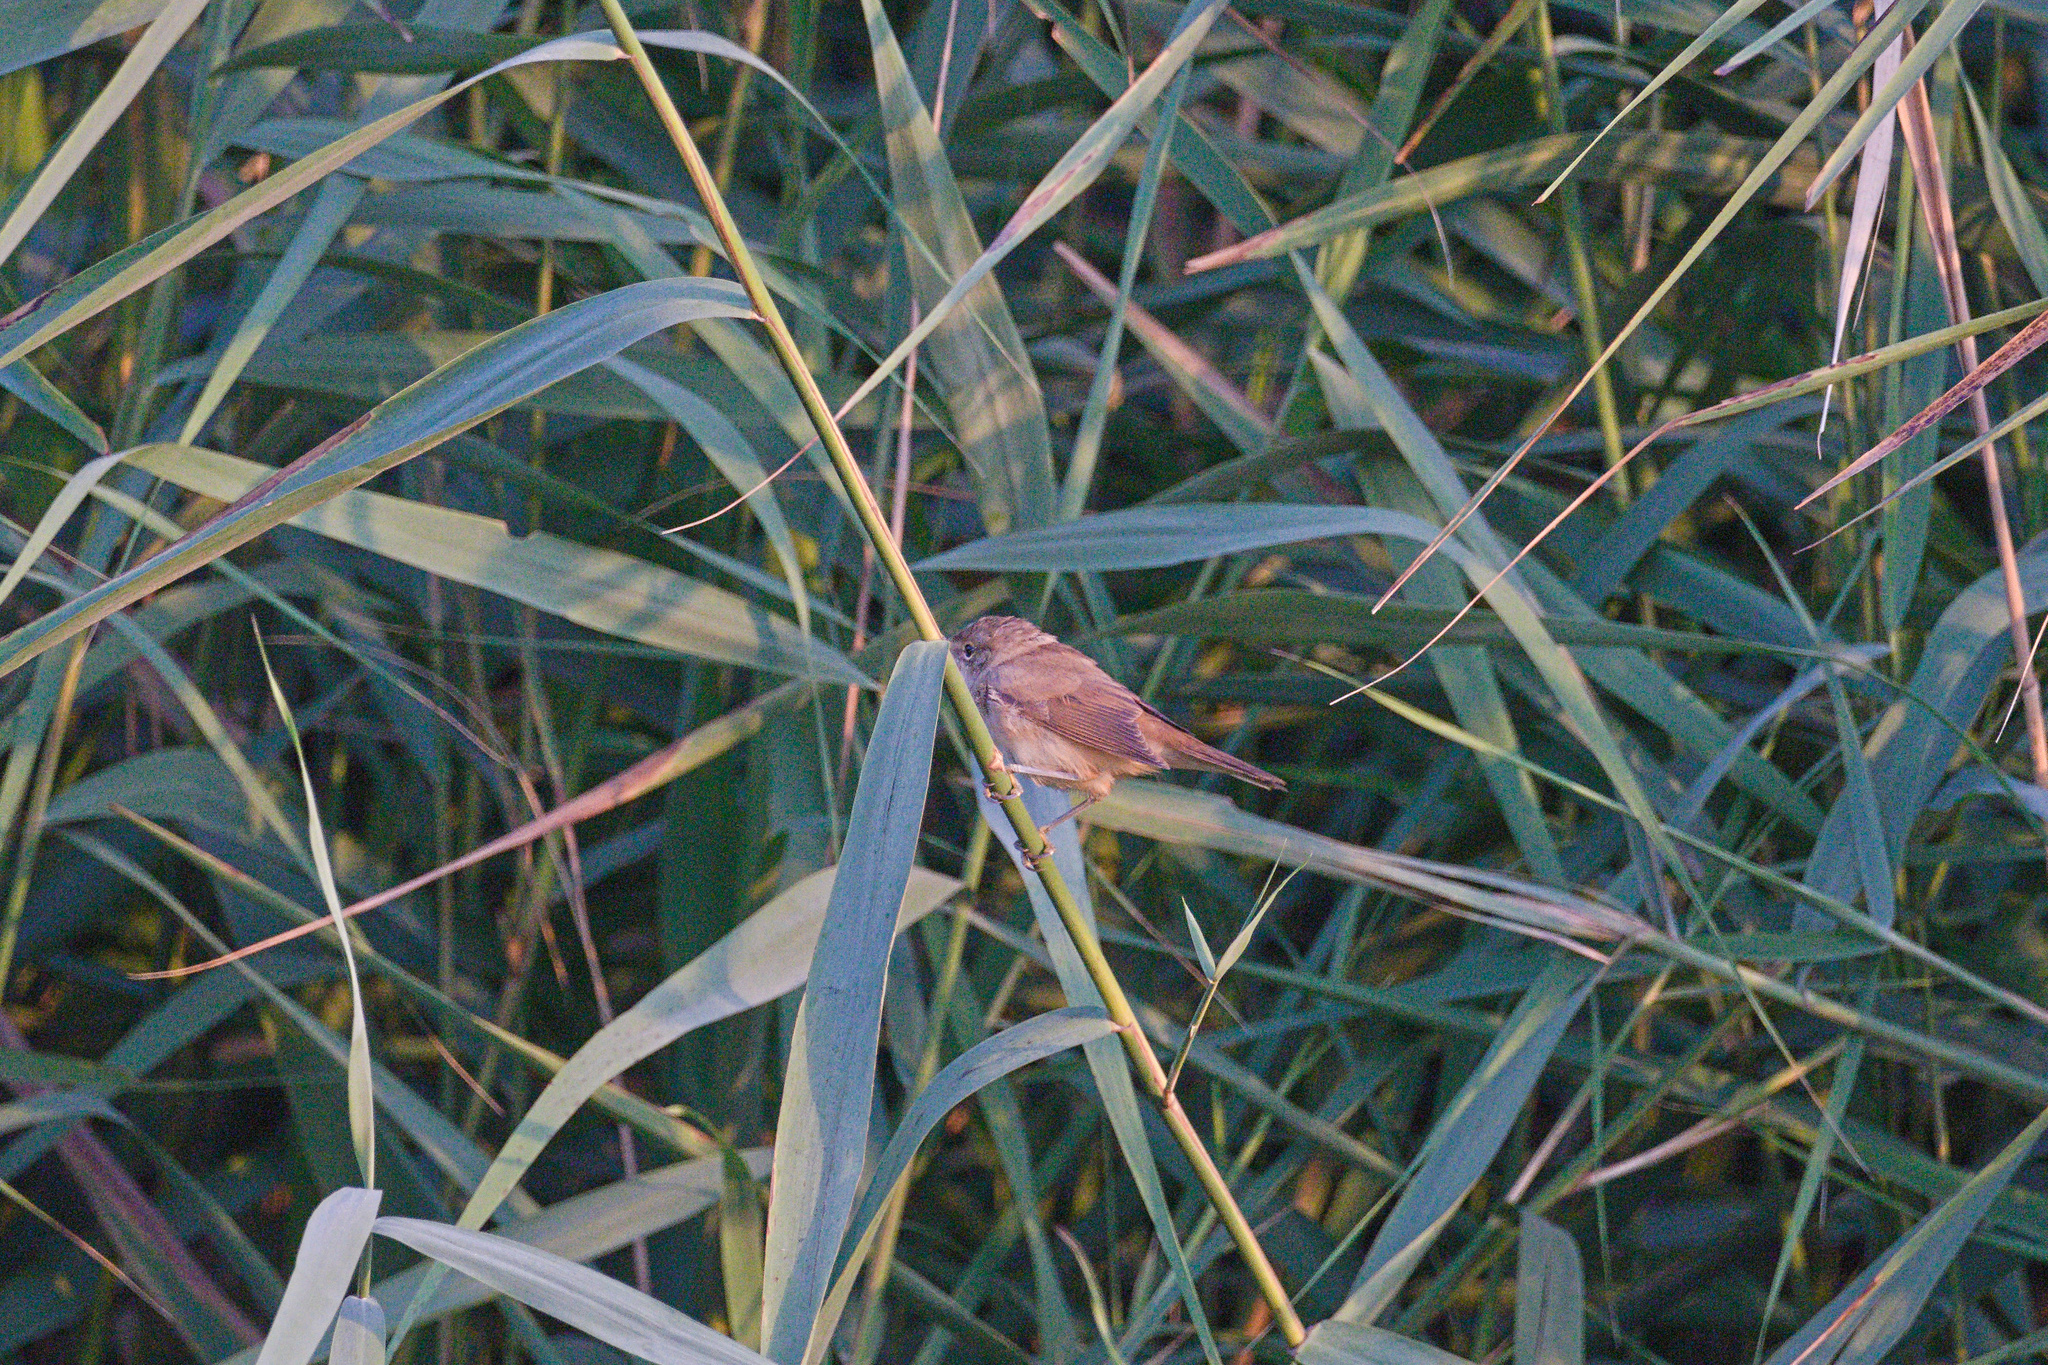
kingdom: Animalia
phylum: Chordata
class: Aves
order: Passeriformes
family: Acrocephalidae
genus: Acrocephalus
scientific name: Acrocephalus scirpaceus
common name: Eurasian reed warbler
